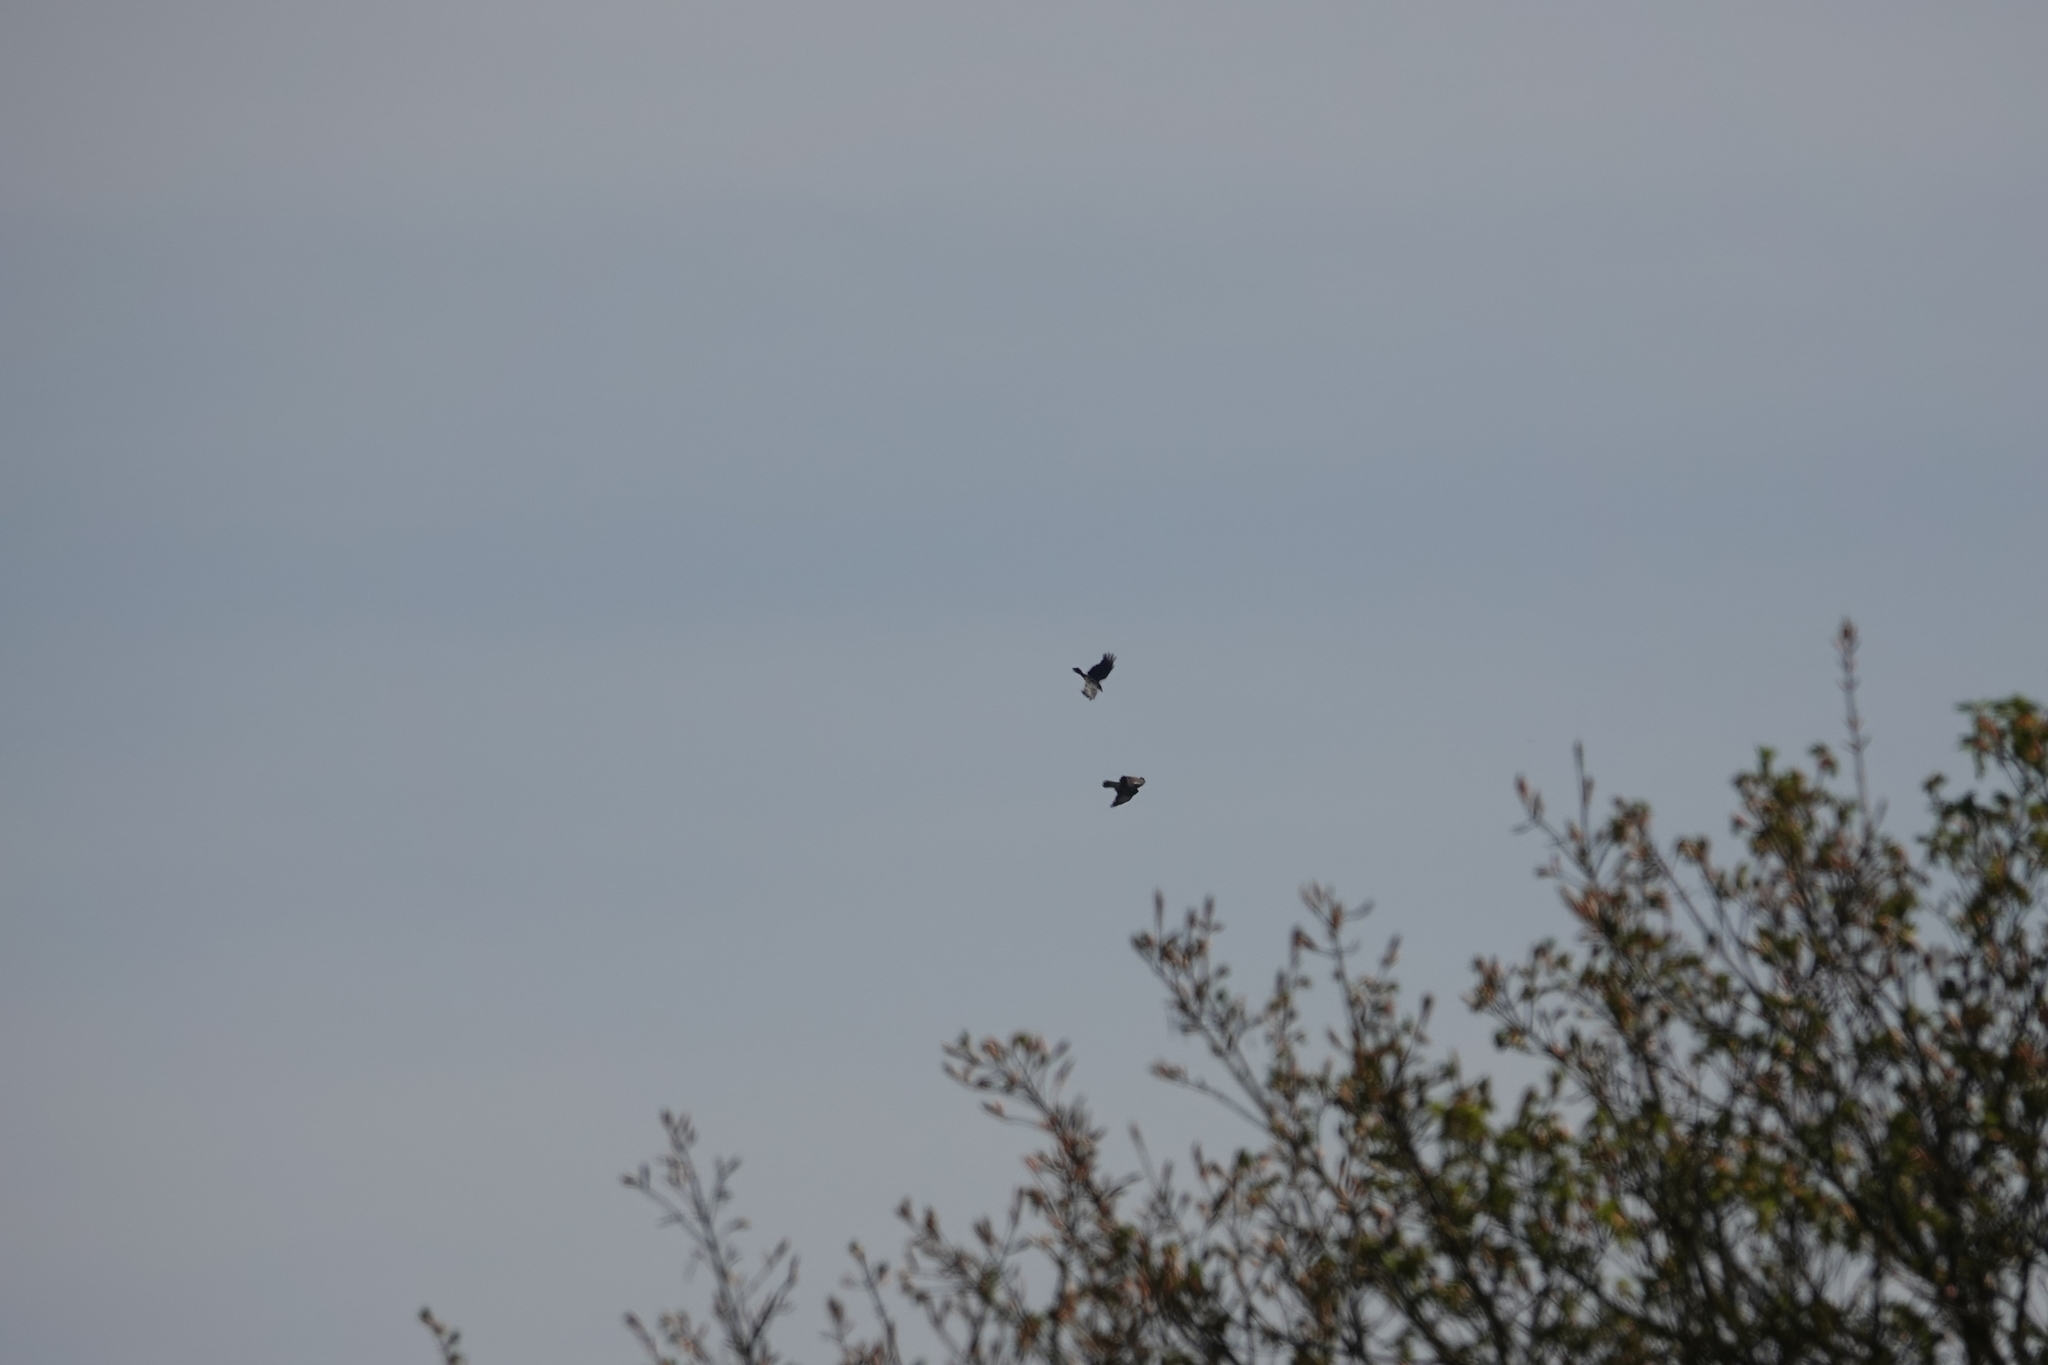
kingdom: Animalia
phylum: Chordata
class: Aves
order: Accipitriformes
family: Accipitridae
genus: Buteo
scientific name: Buteo buteo
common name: Common buzzard
